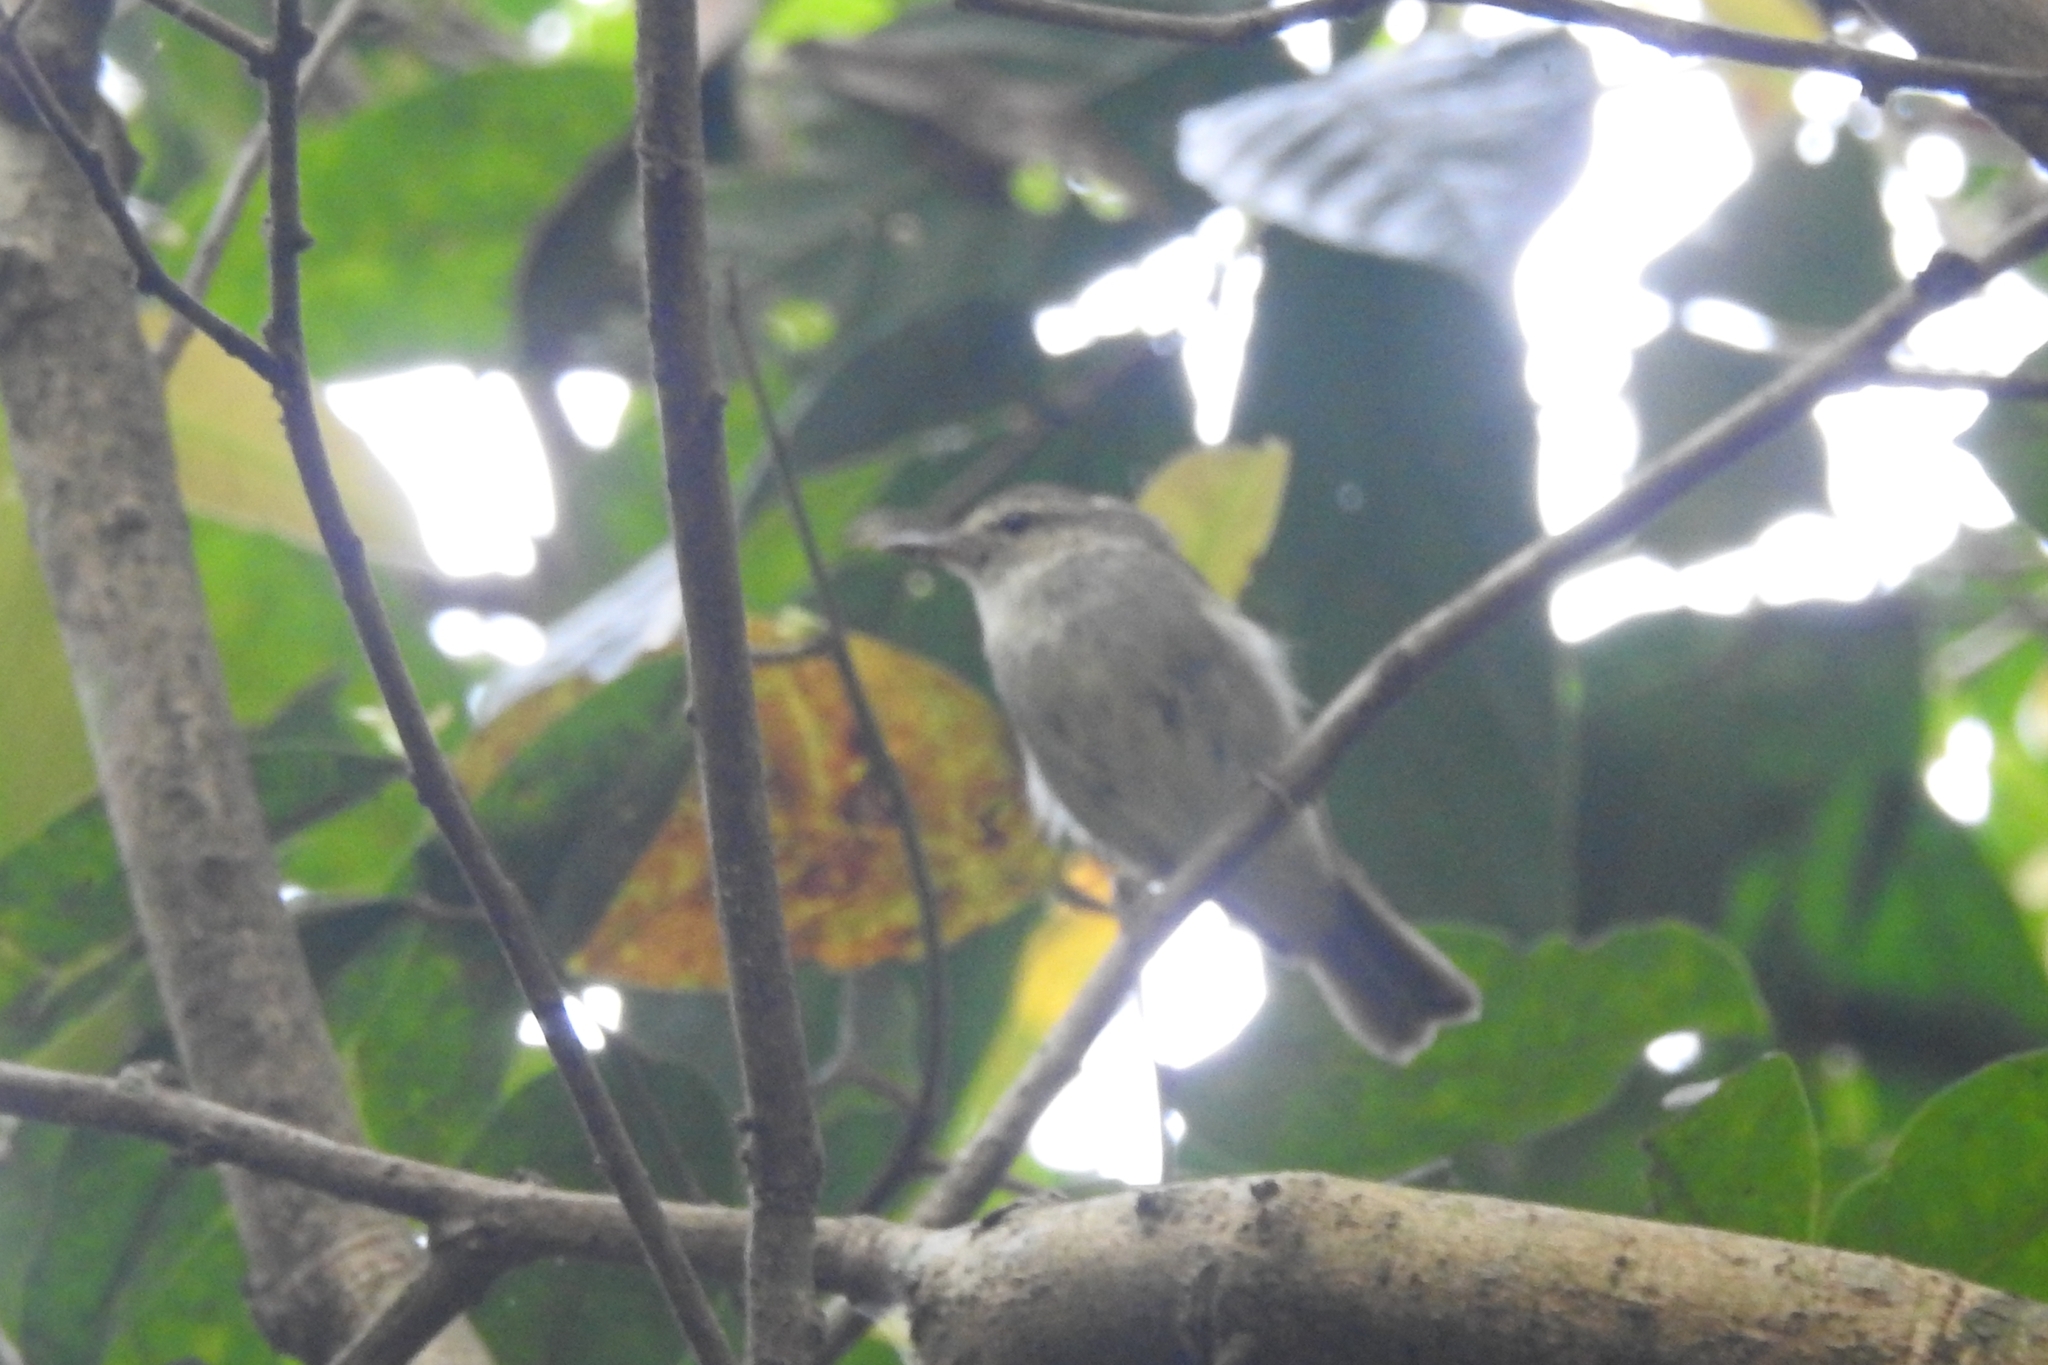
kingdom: Animalia
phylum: Chordata
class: Aves
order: Passeriformes
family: Phylloscopidae
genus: Phylloscopus
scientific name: Phylloscopus trochiloides
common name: Greenish warbler
